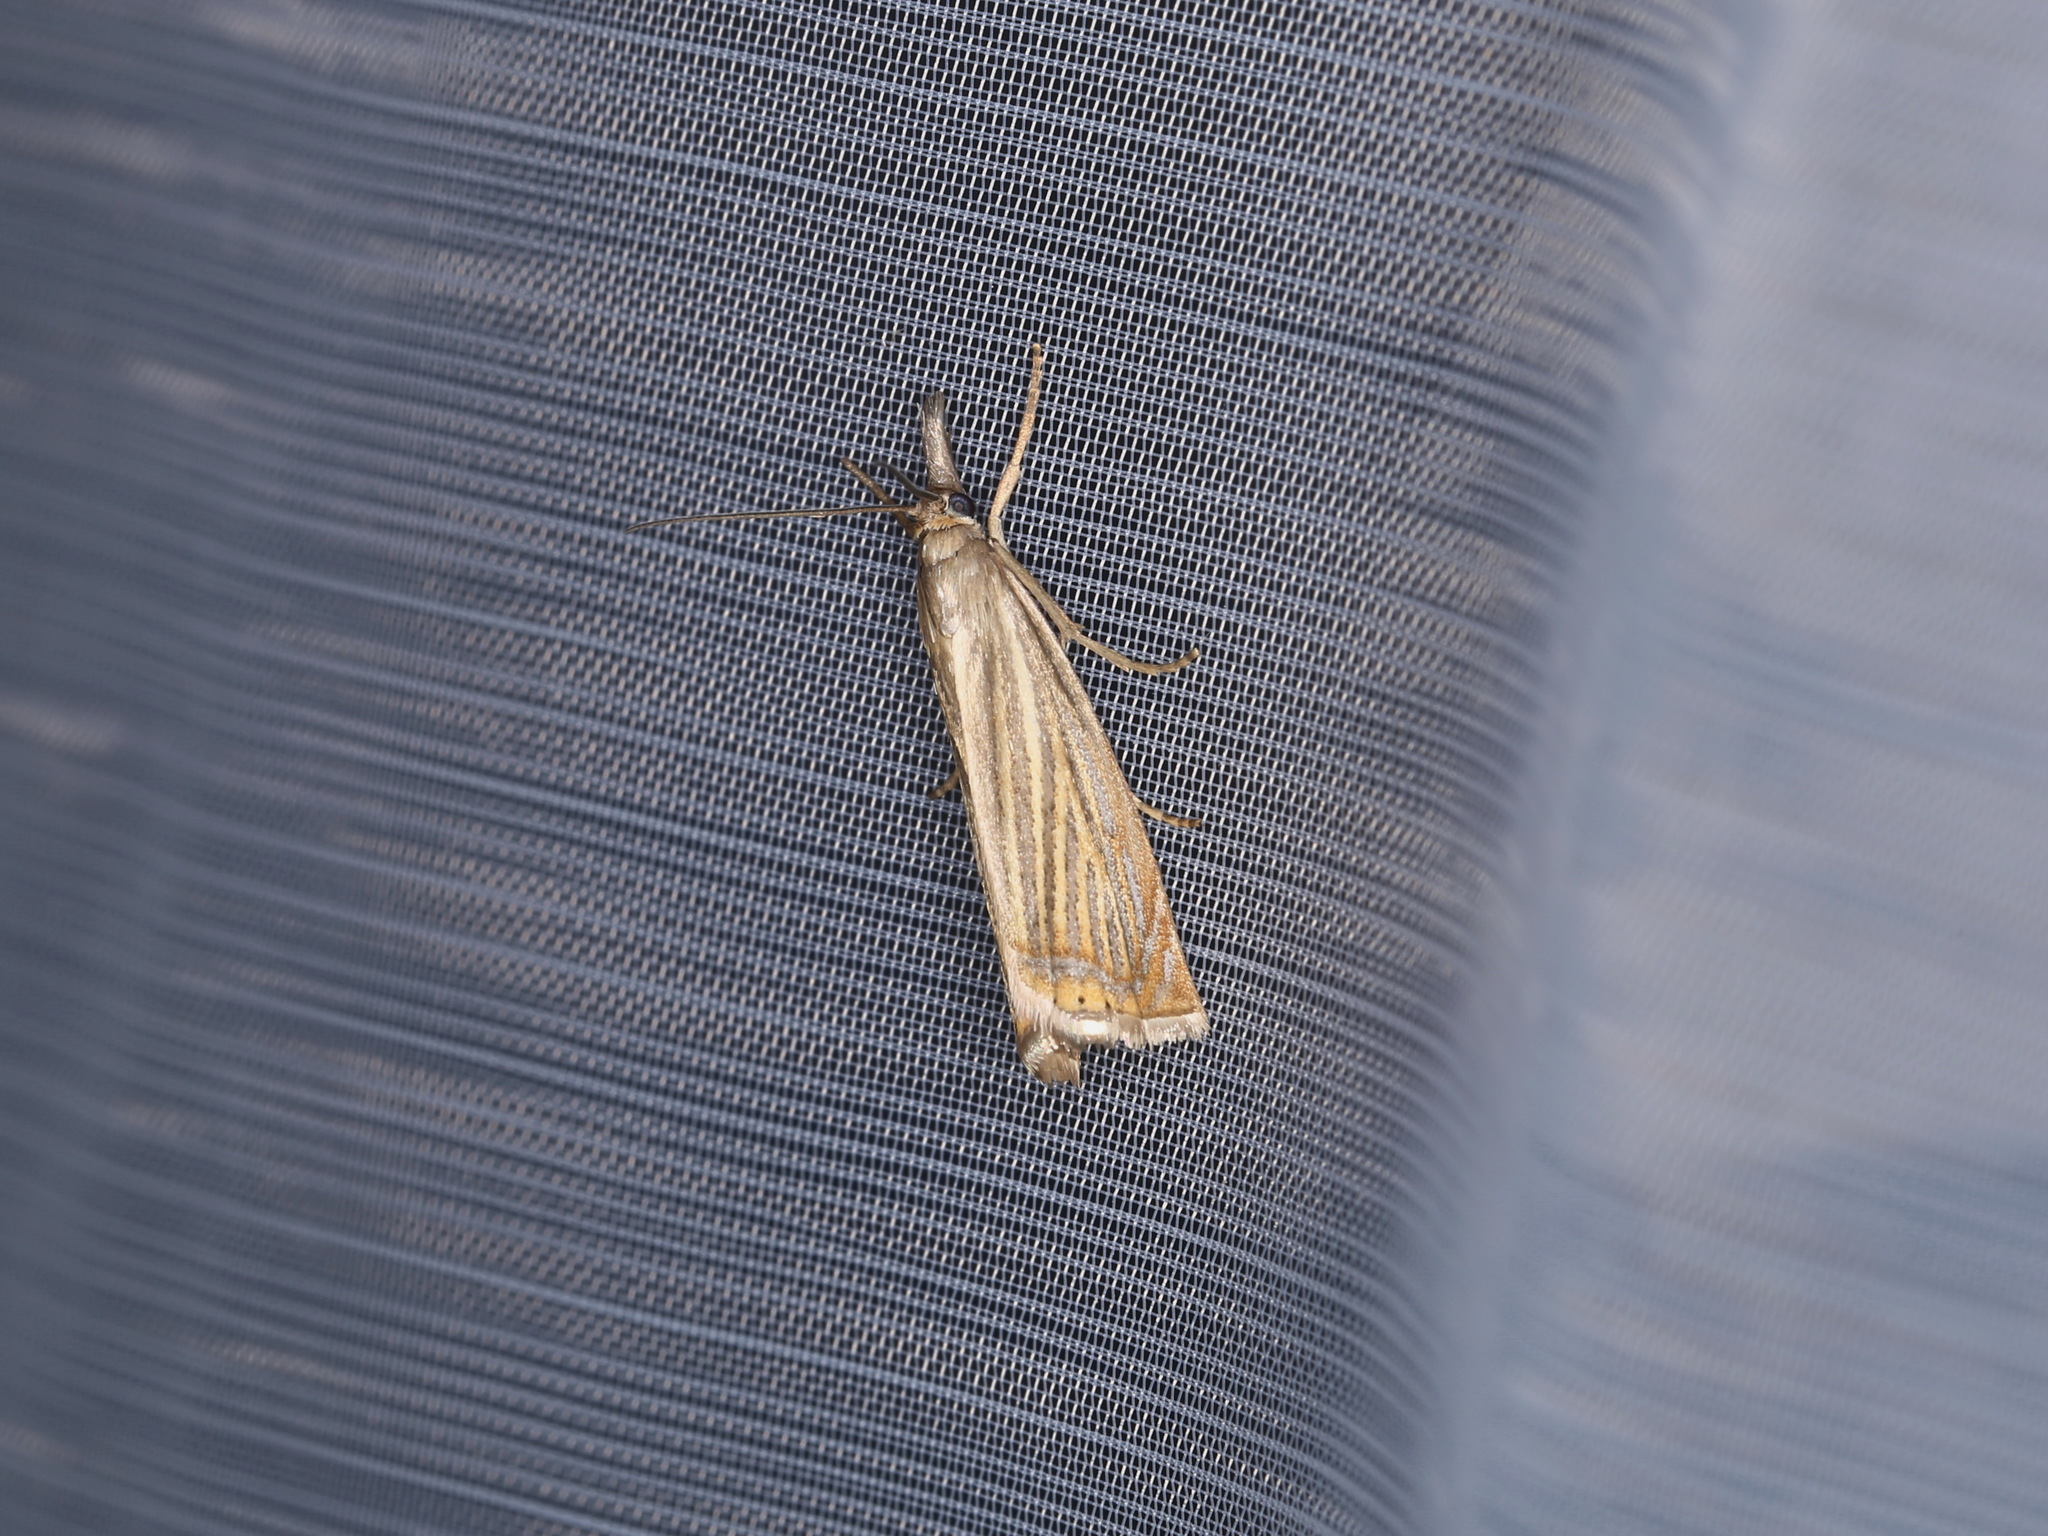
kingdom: Animalia
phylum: Arthropoda
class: Insecta
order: Lepidoptera
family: Crambidae
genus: Chrysoteuchia
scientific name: Chrysoteuchia culmella
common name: Garden grass-veneer
